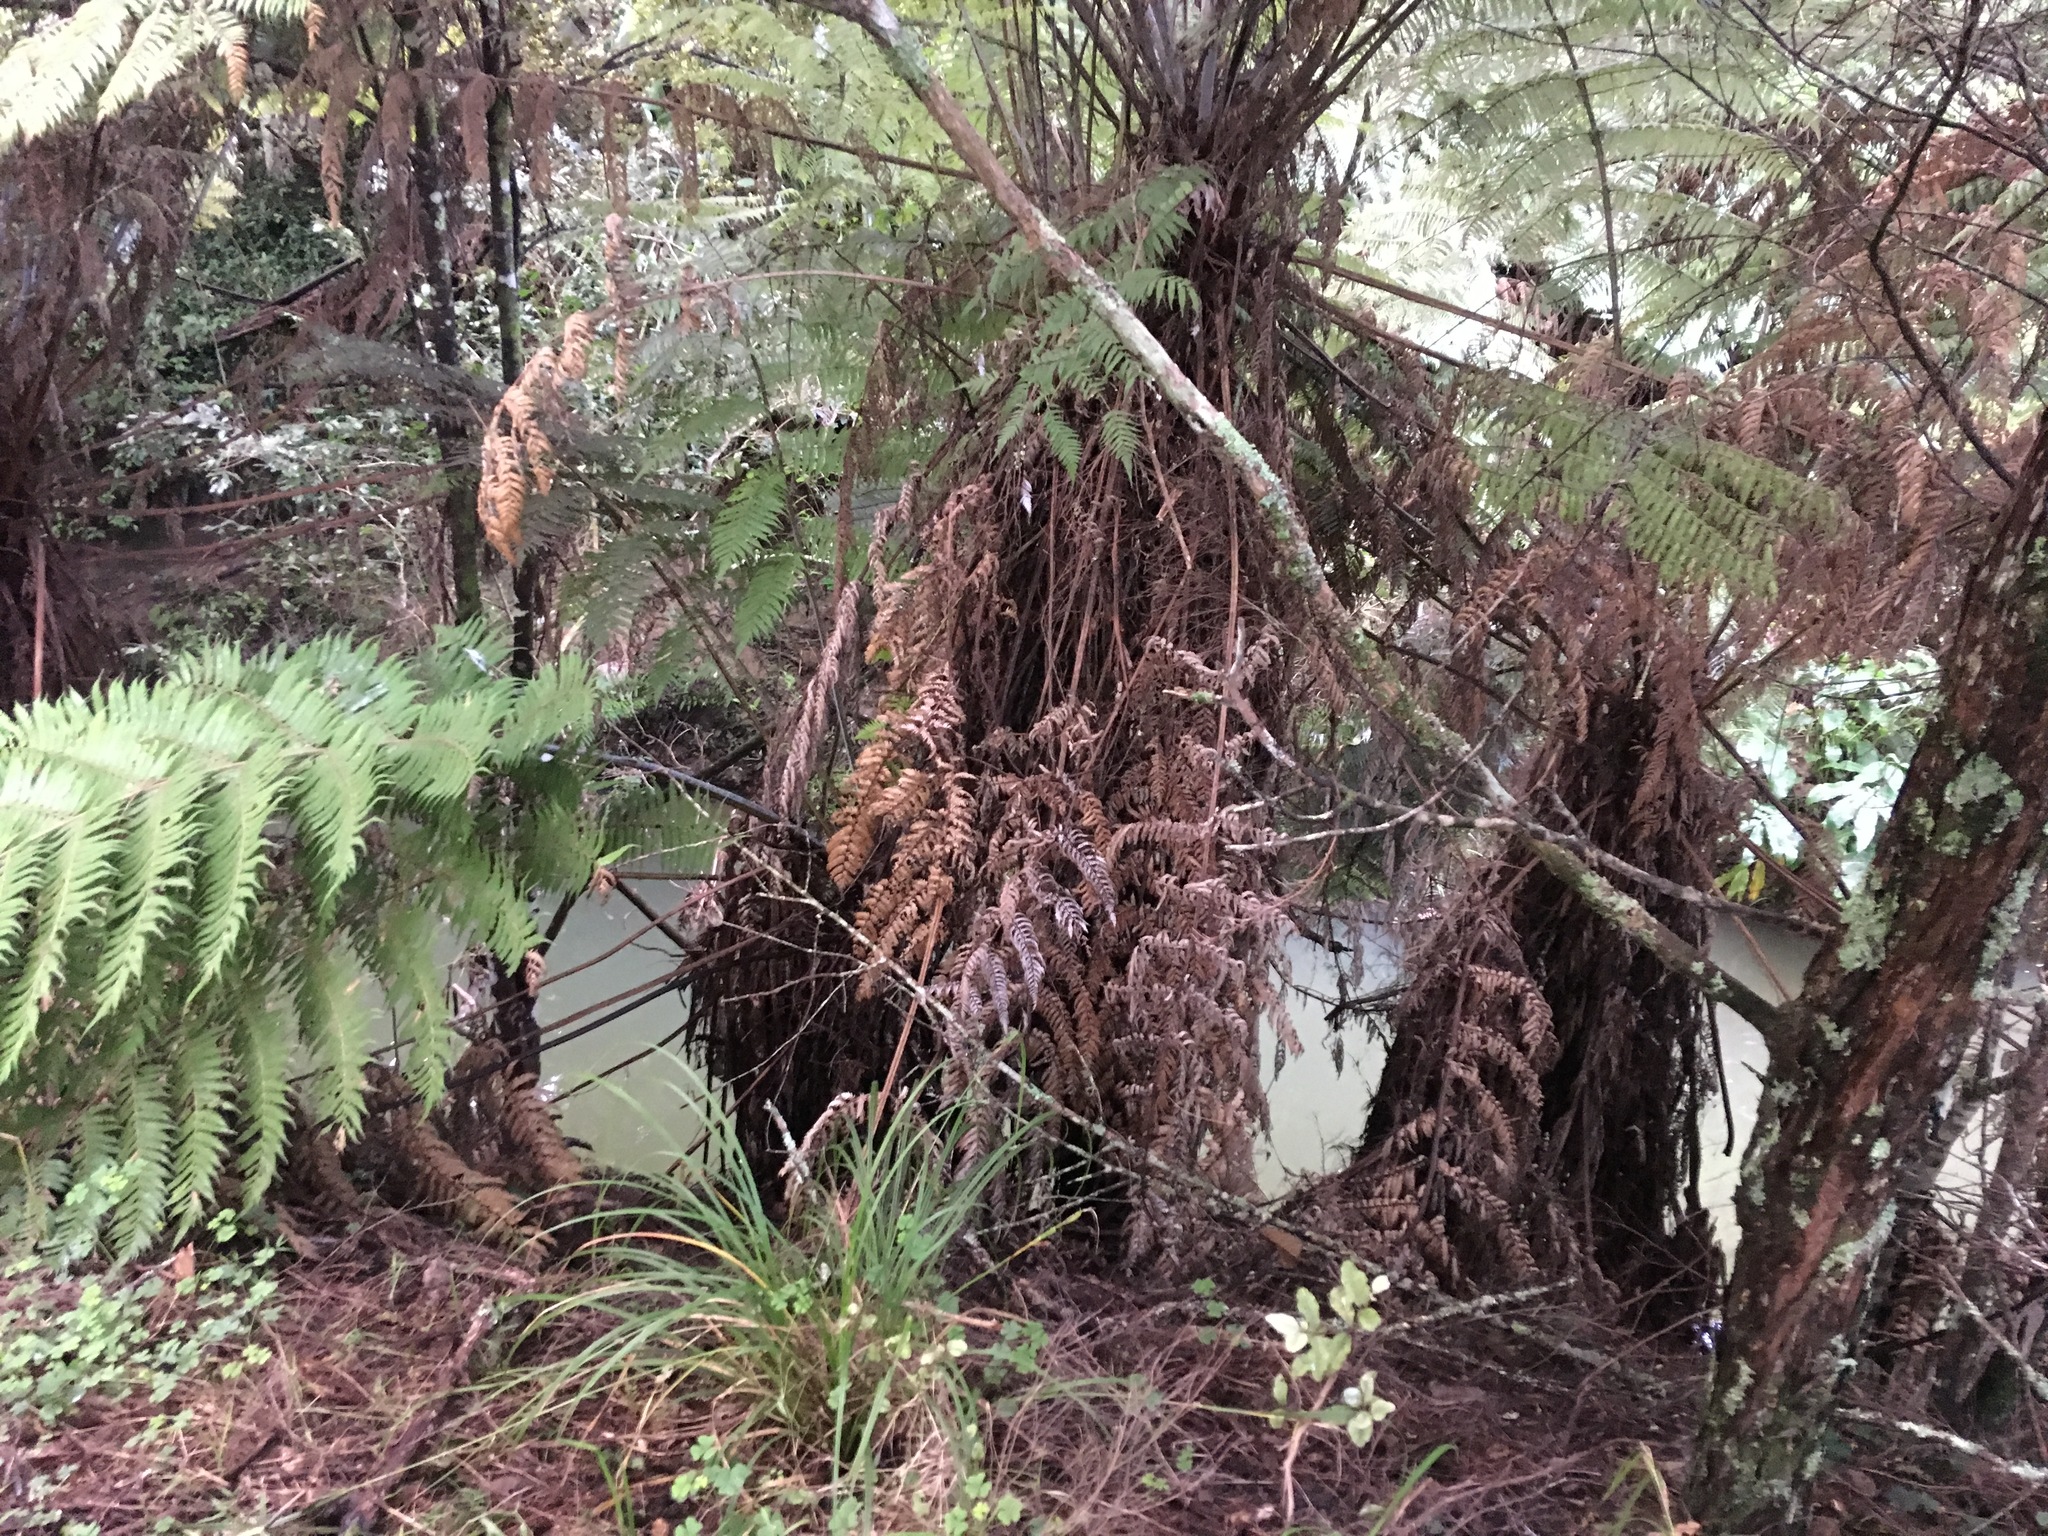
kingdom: Plantae
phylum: Tracheophyta
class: Magnoliopsida
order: Ericales
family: Primulaceae
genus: Myrsine
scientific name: Myrsine australis
